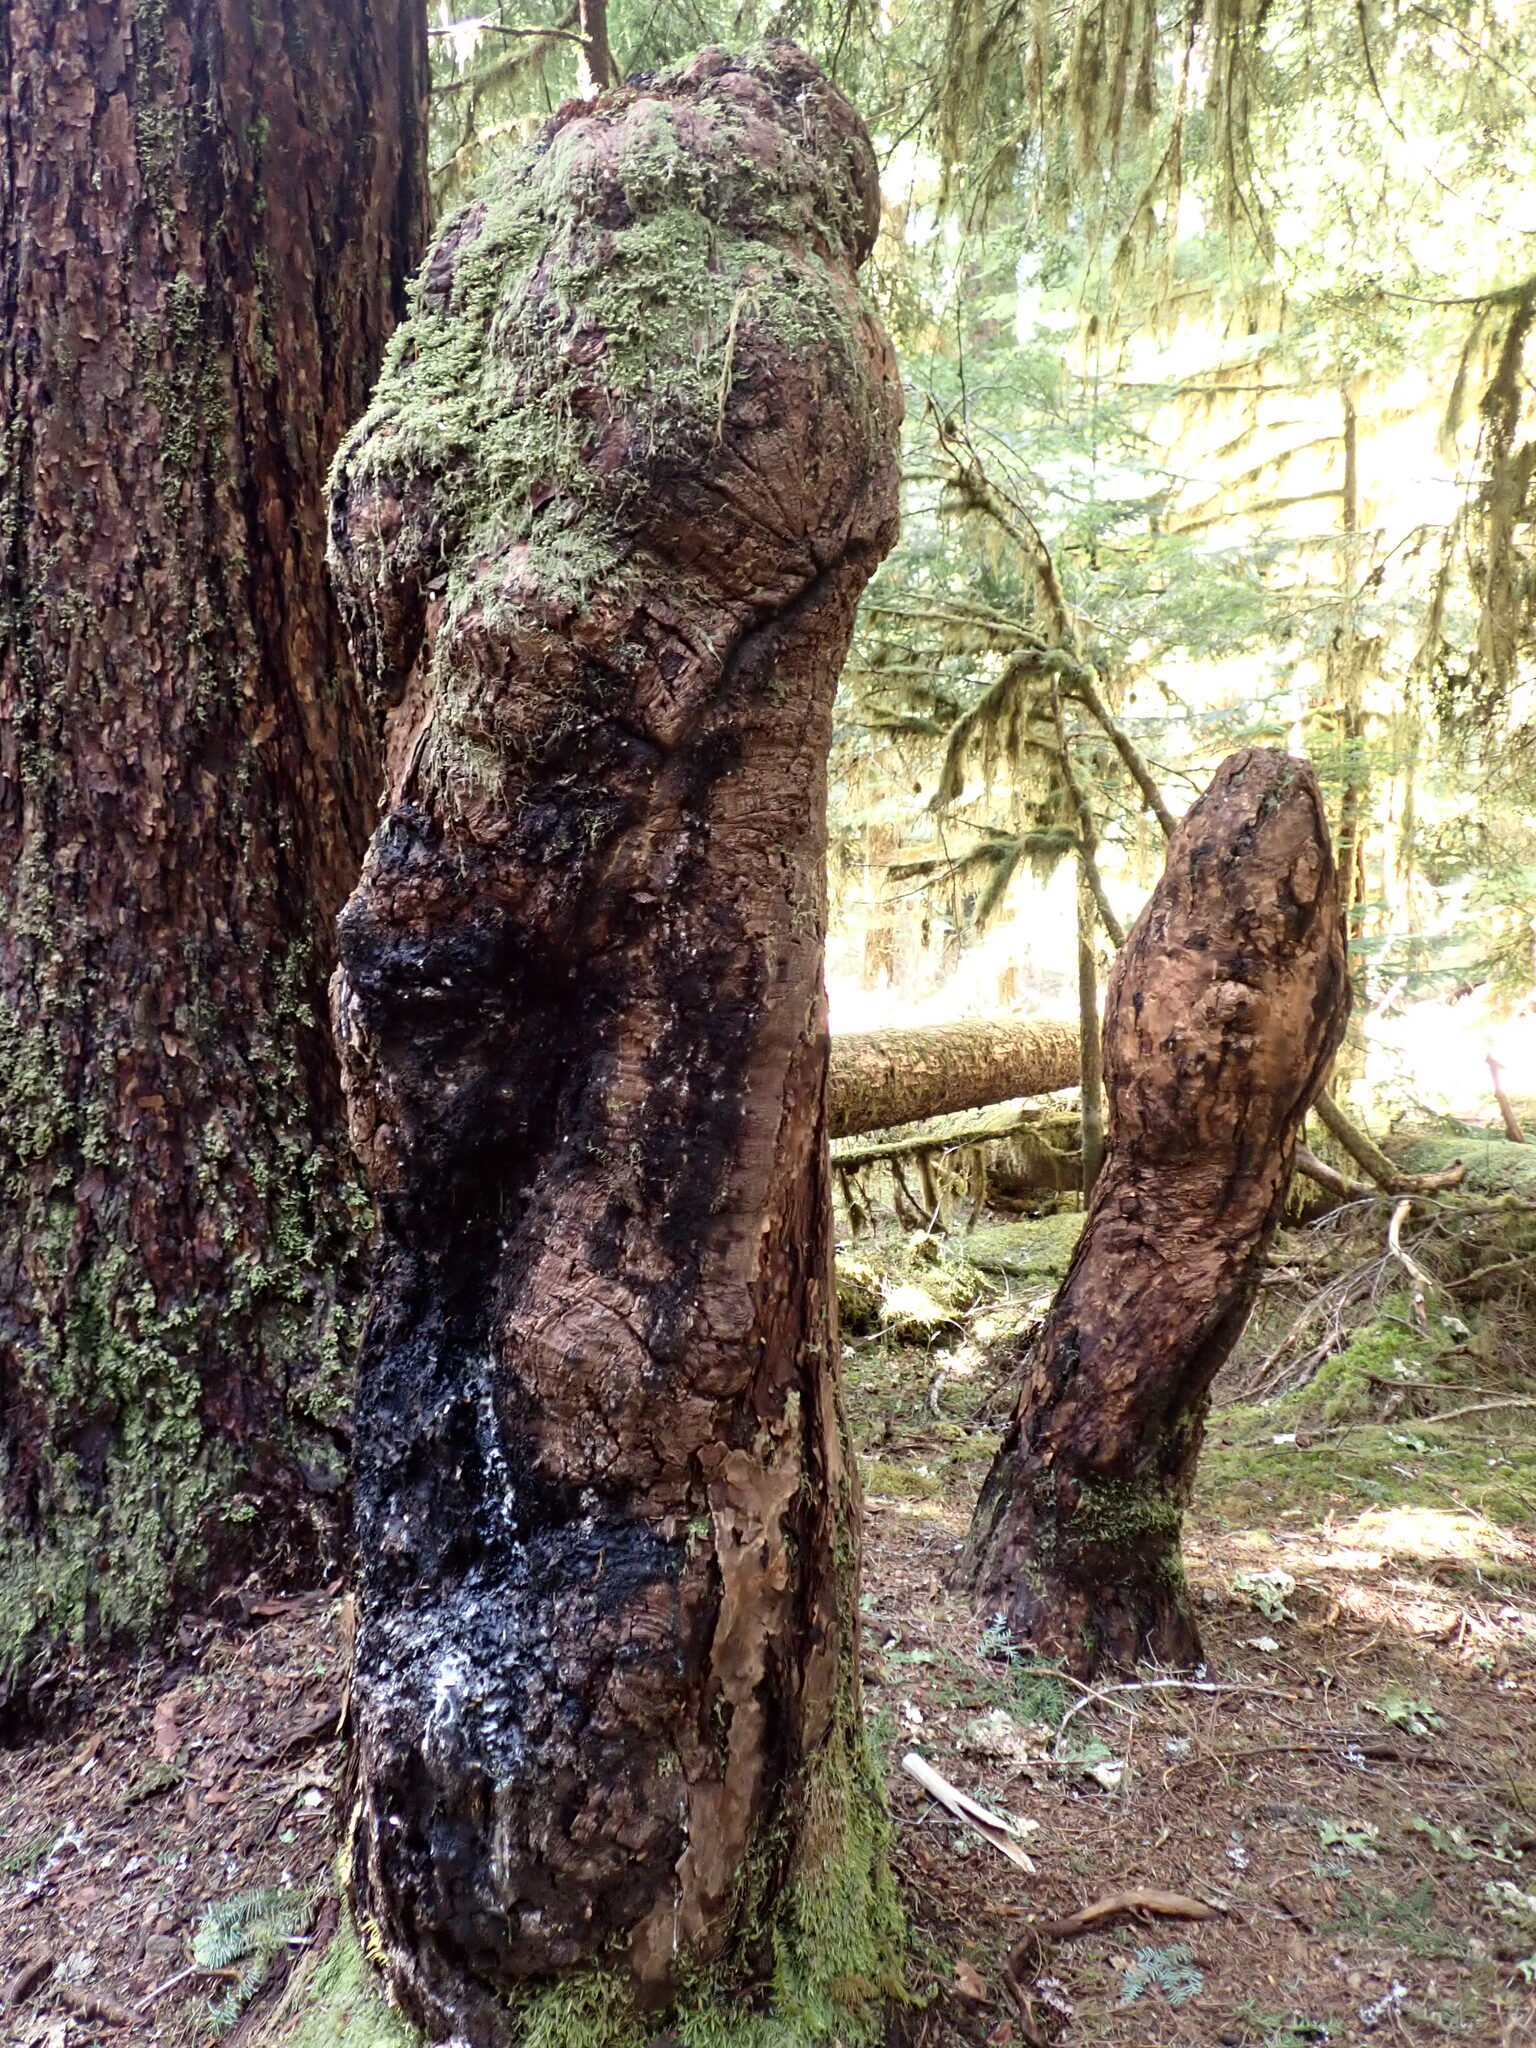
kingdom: Plantae
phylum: Tracheophyta
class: Pinopsida
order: Pinales
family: Pinaceae
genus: Pseudotsuga
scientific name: Pseudotsuga menziesii
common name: Douglas fir
